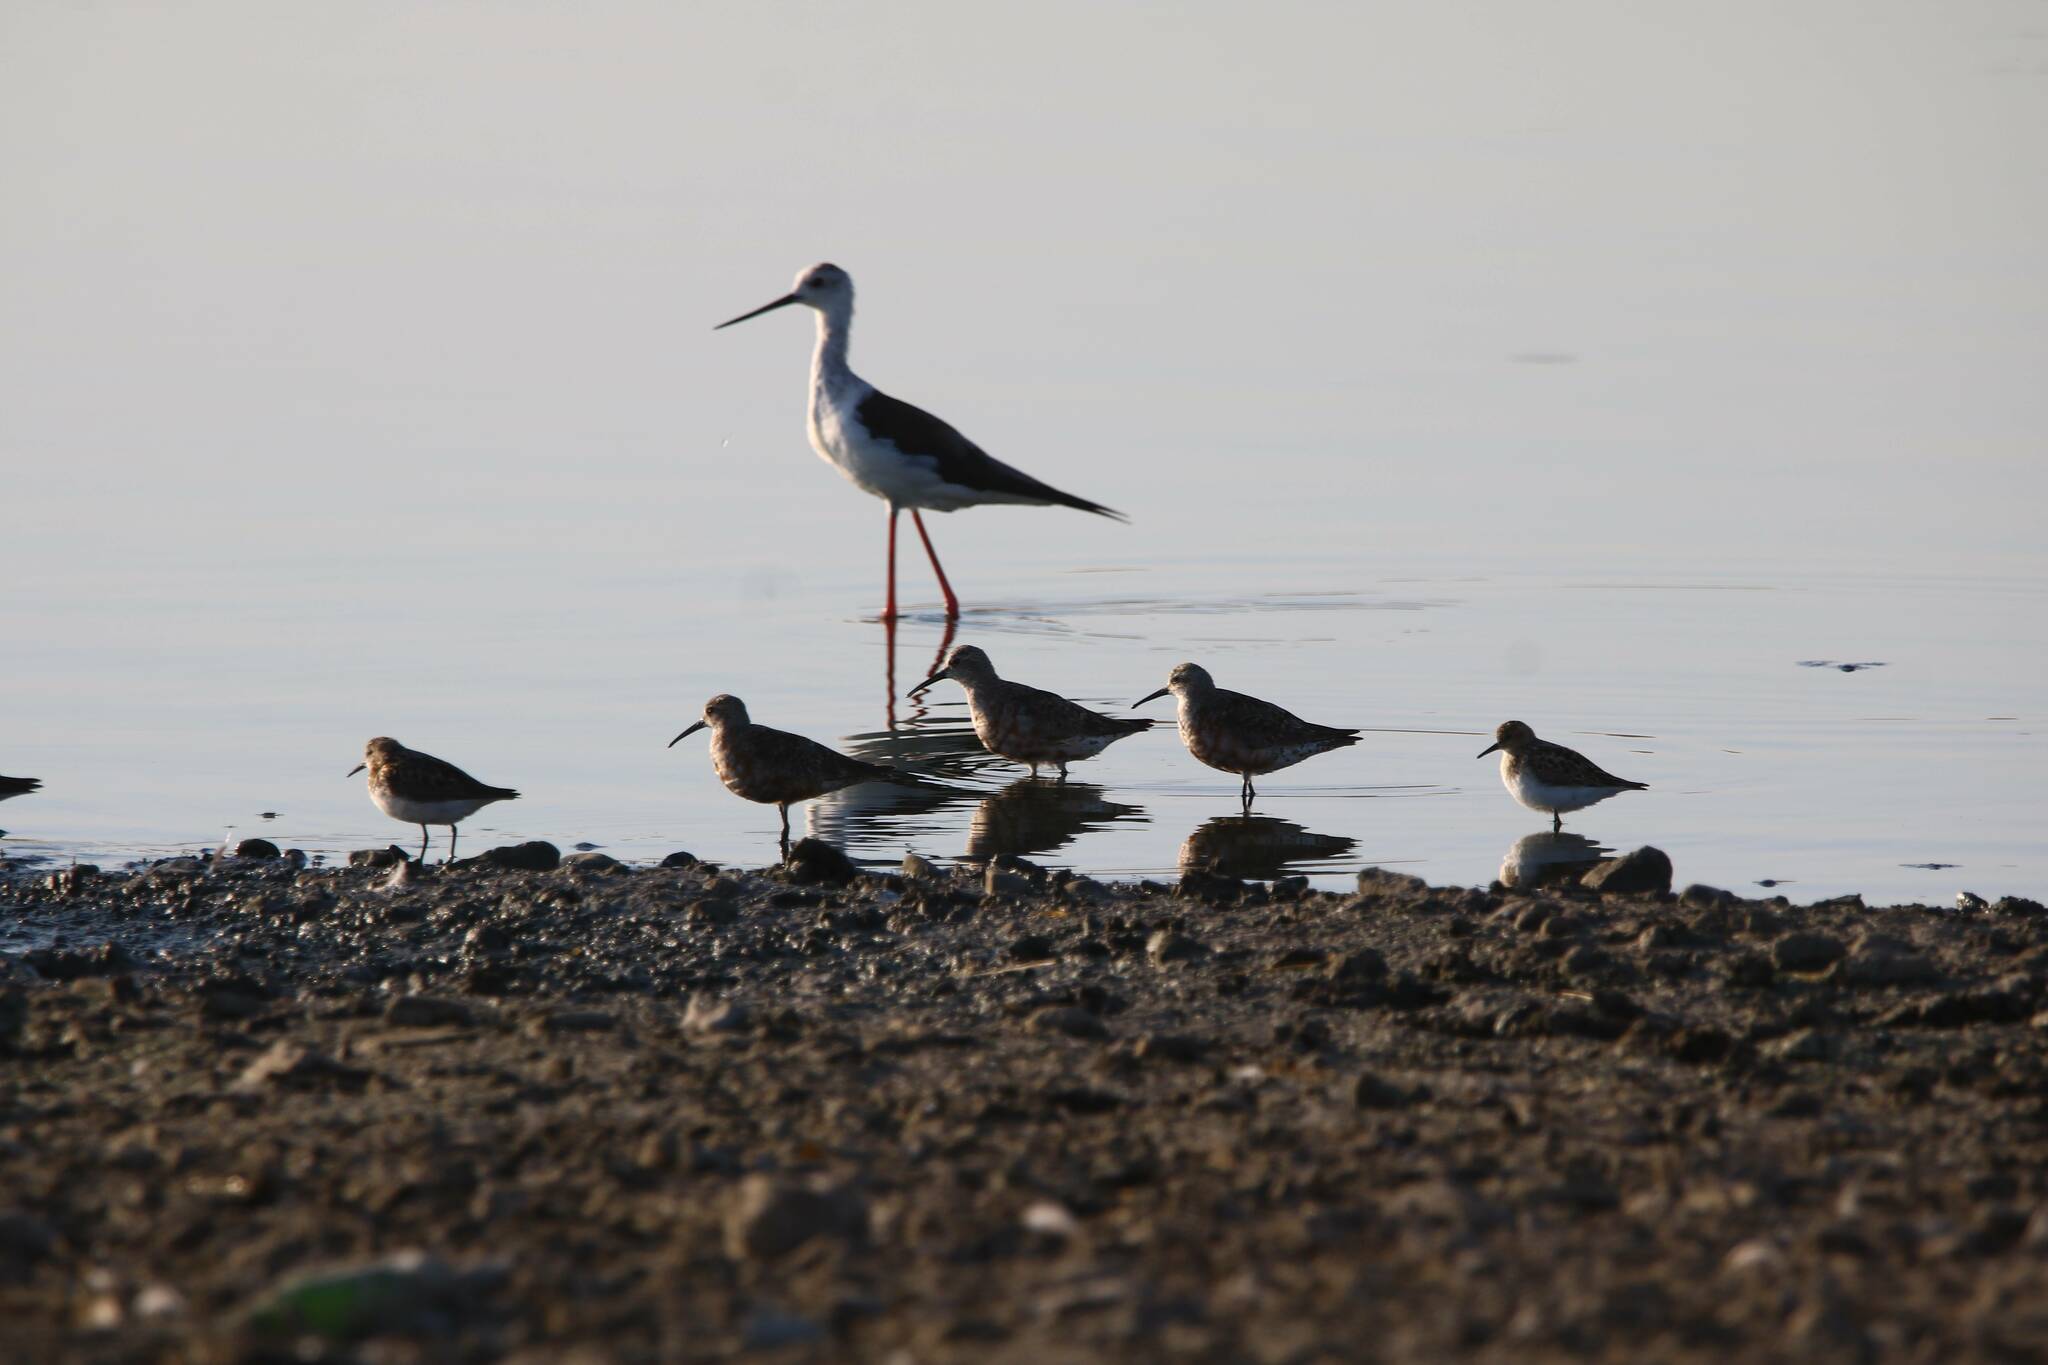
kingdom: Animalia
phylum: Chordata
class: Aves
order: Charadriiformes
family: Recurvirostridae
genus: Himantopus
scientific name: Himantopus himantopus
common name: Black-winged stilt
